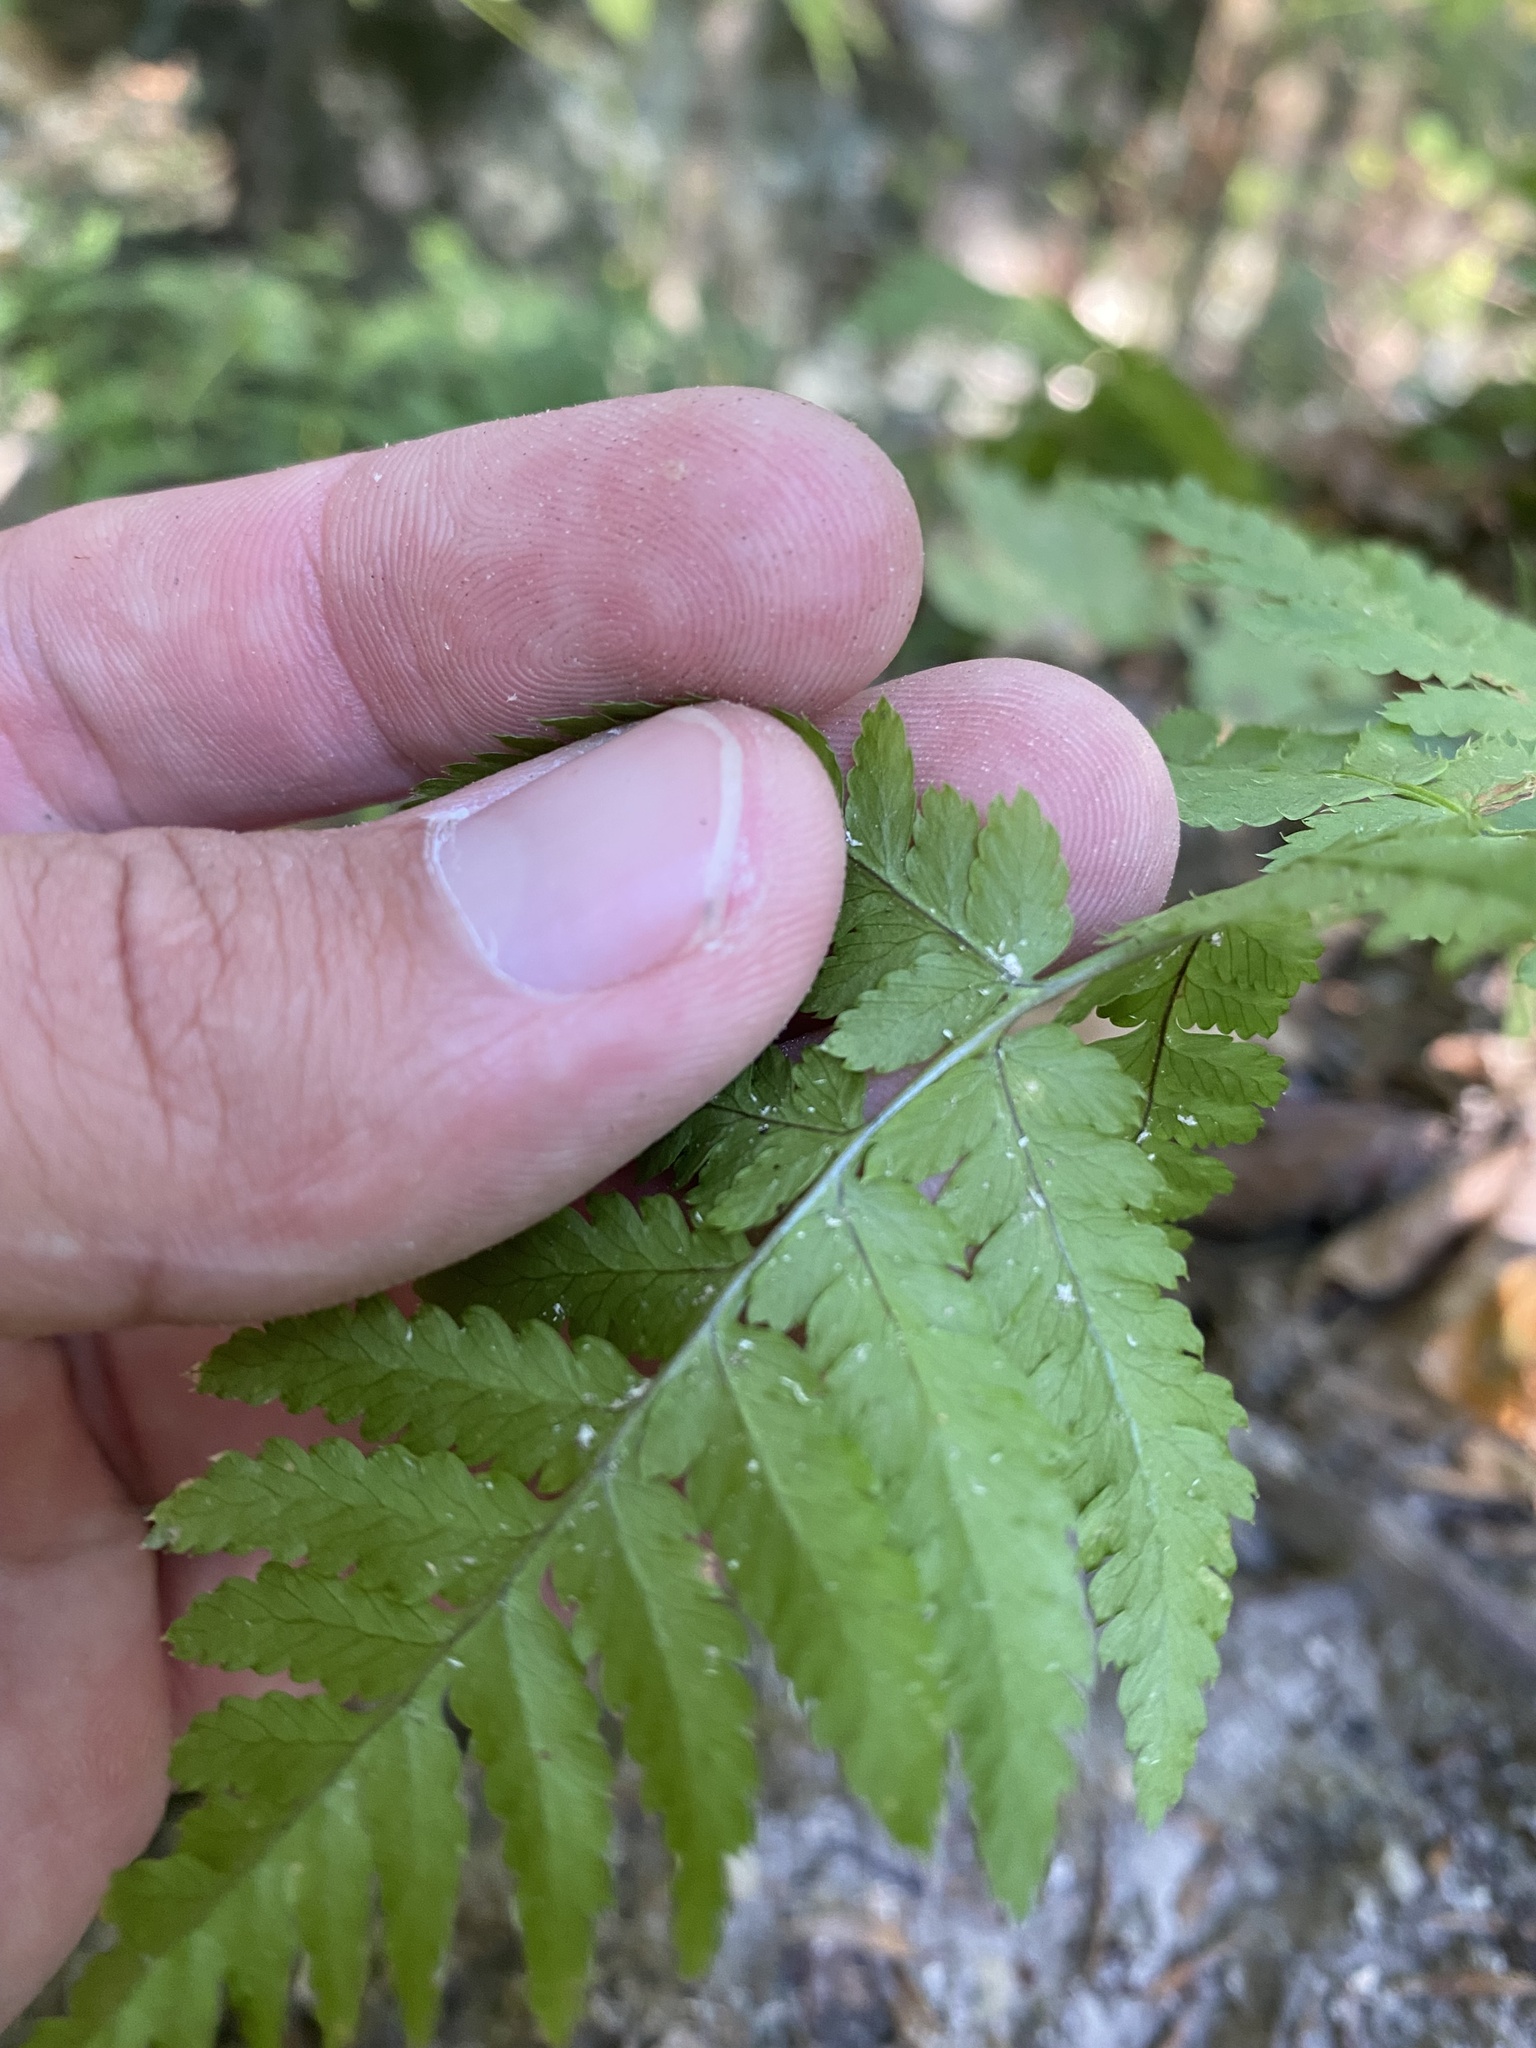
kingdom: Plantae
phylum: Tracheophyta
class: Polypodiopsida
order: Polypodiales
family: Dryopteridaceae
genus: Dryopteris
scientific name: Dryopteris carthusiana
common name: Narrow buckler-fern
